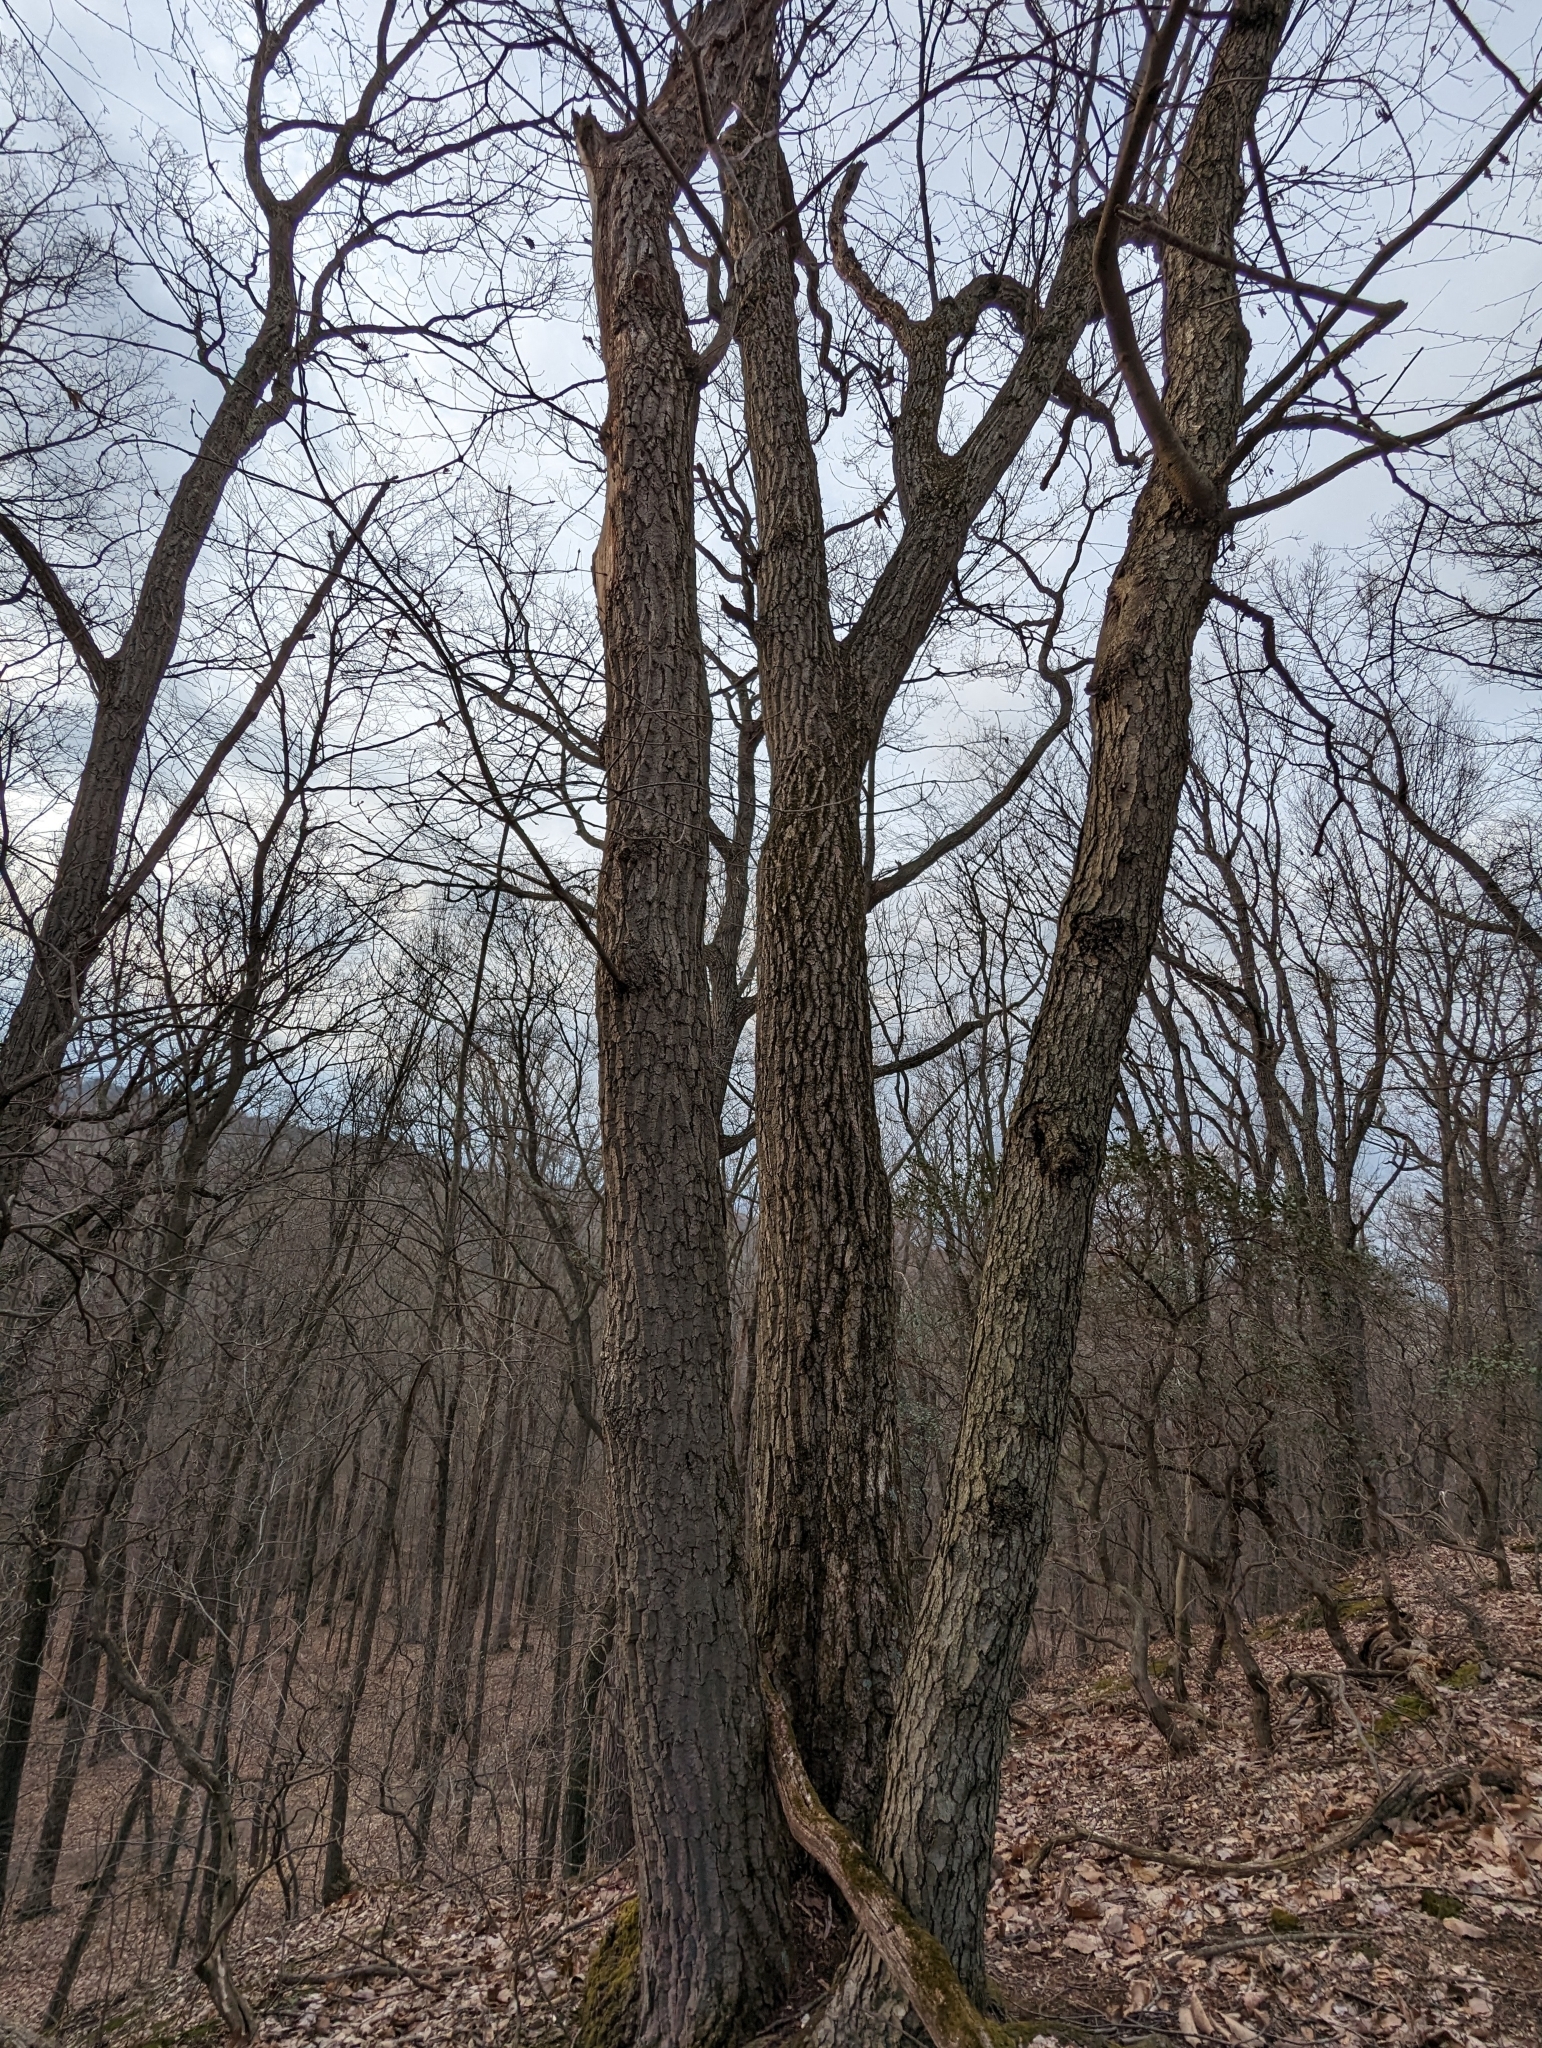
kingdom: Plantae
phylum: Tracheophyta
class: Magnoliopsida
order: Fagales
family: Fagaceae
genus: Quercus
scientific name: Quercus montana
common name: Chestnut oak
